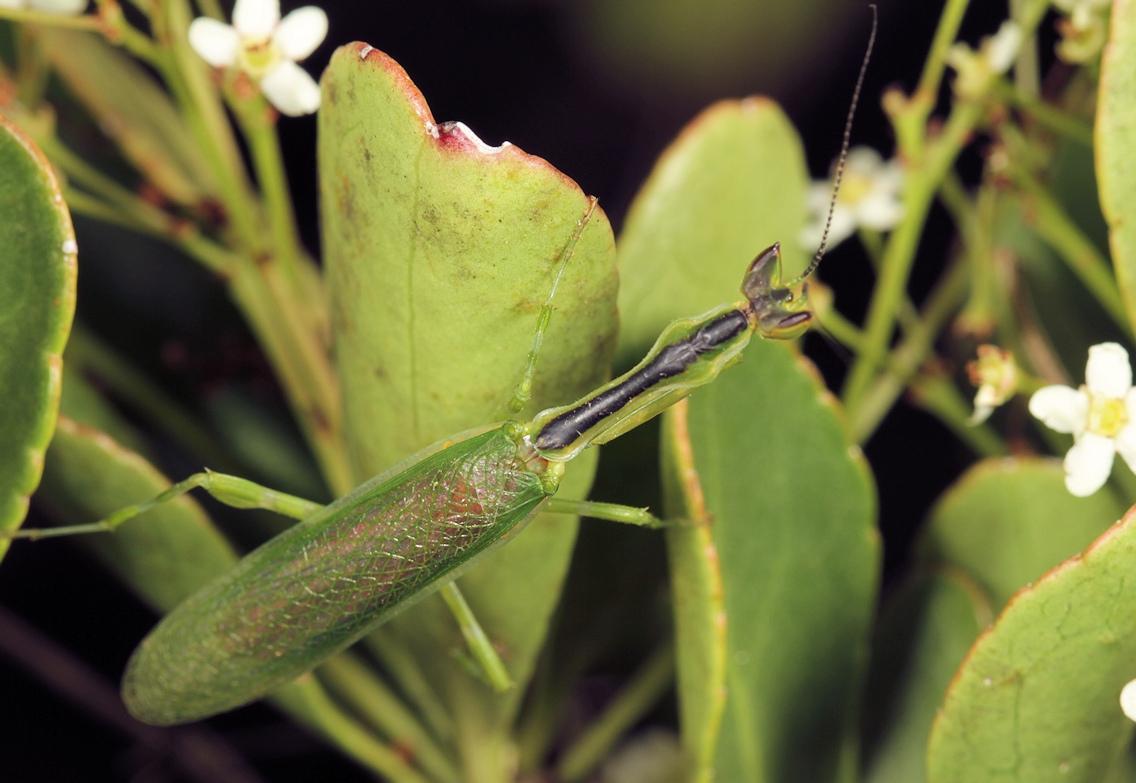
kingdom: Animalia
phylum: Arthropoda
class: Insecta
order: Mantodea
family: Galinthiadidae
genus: Galinthias
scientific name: Galinthias amoena
